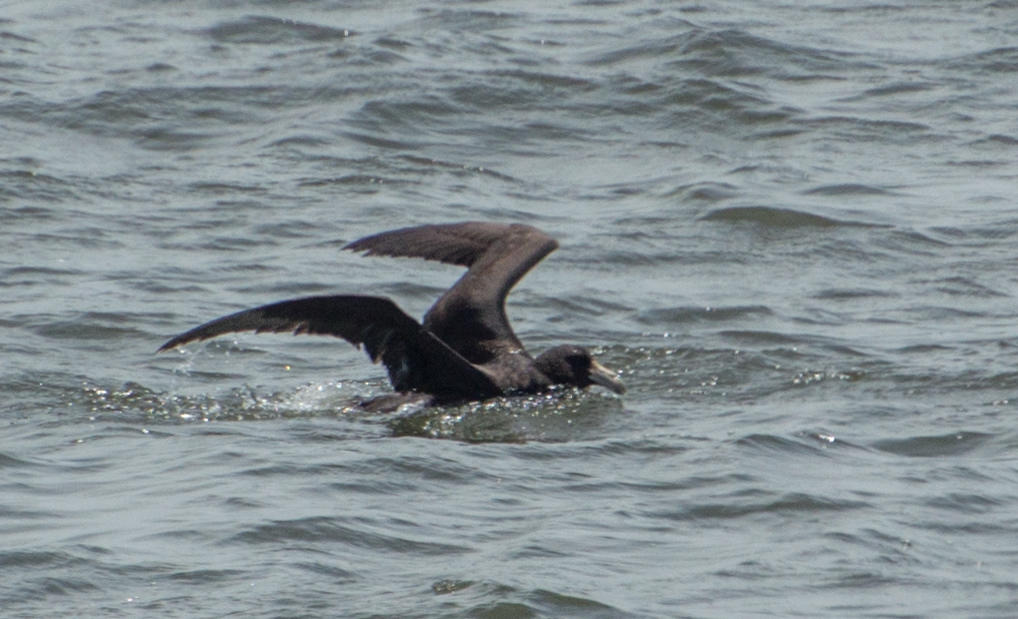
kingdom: Animalia
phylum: Chordata
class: Aves
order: Procellariiformes
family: Procellariidae
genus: Macronectes
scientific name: Macronectes giganteus
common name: Southern giant petrel
